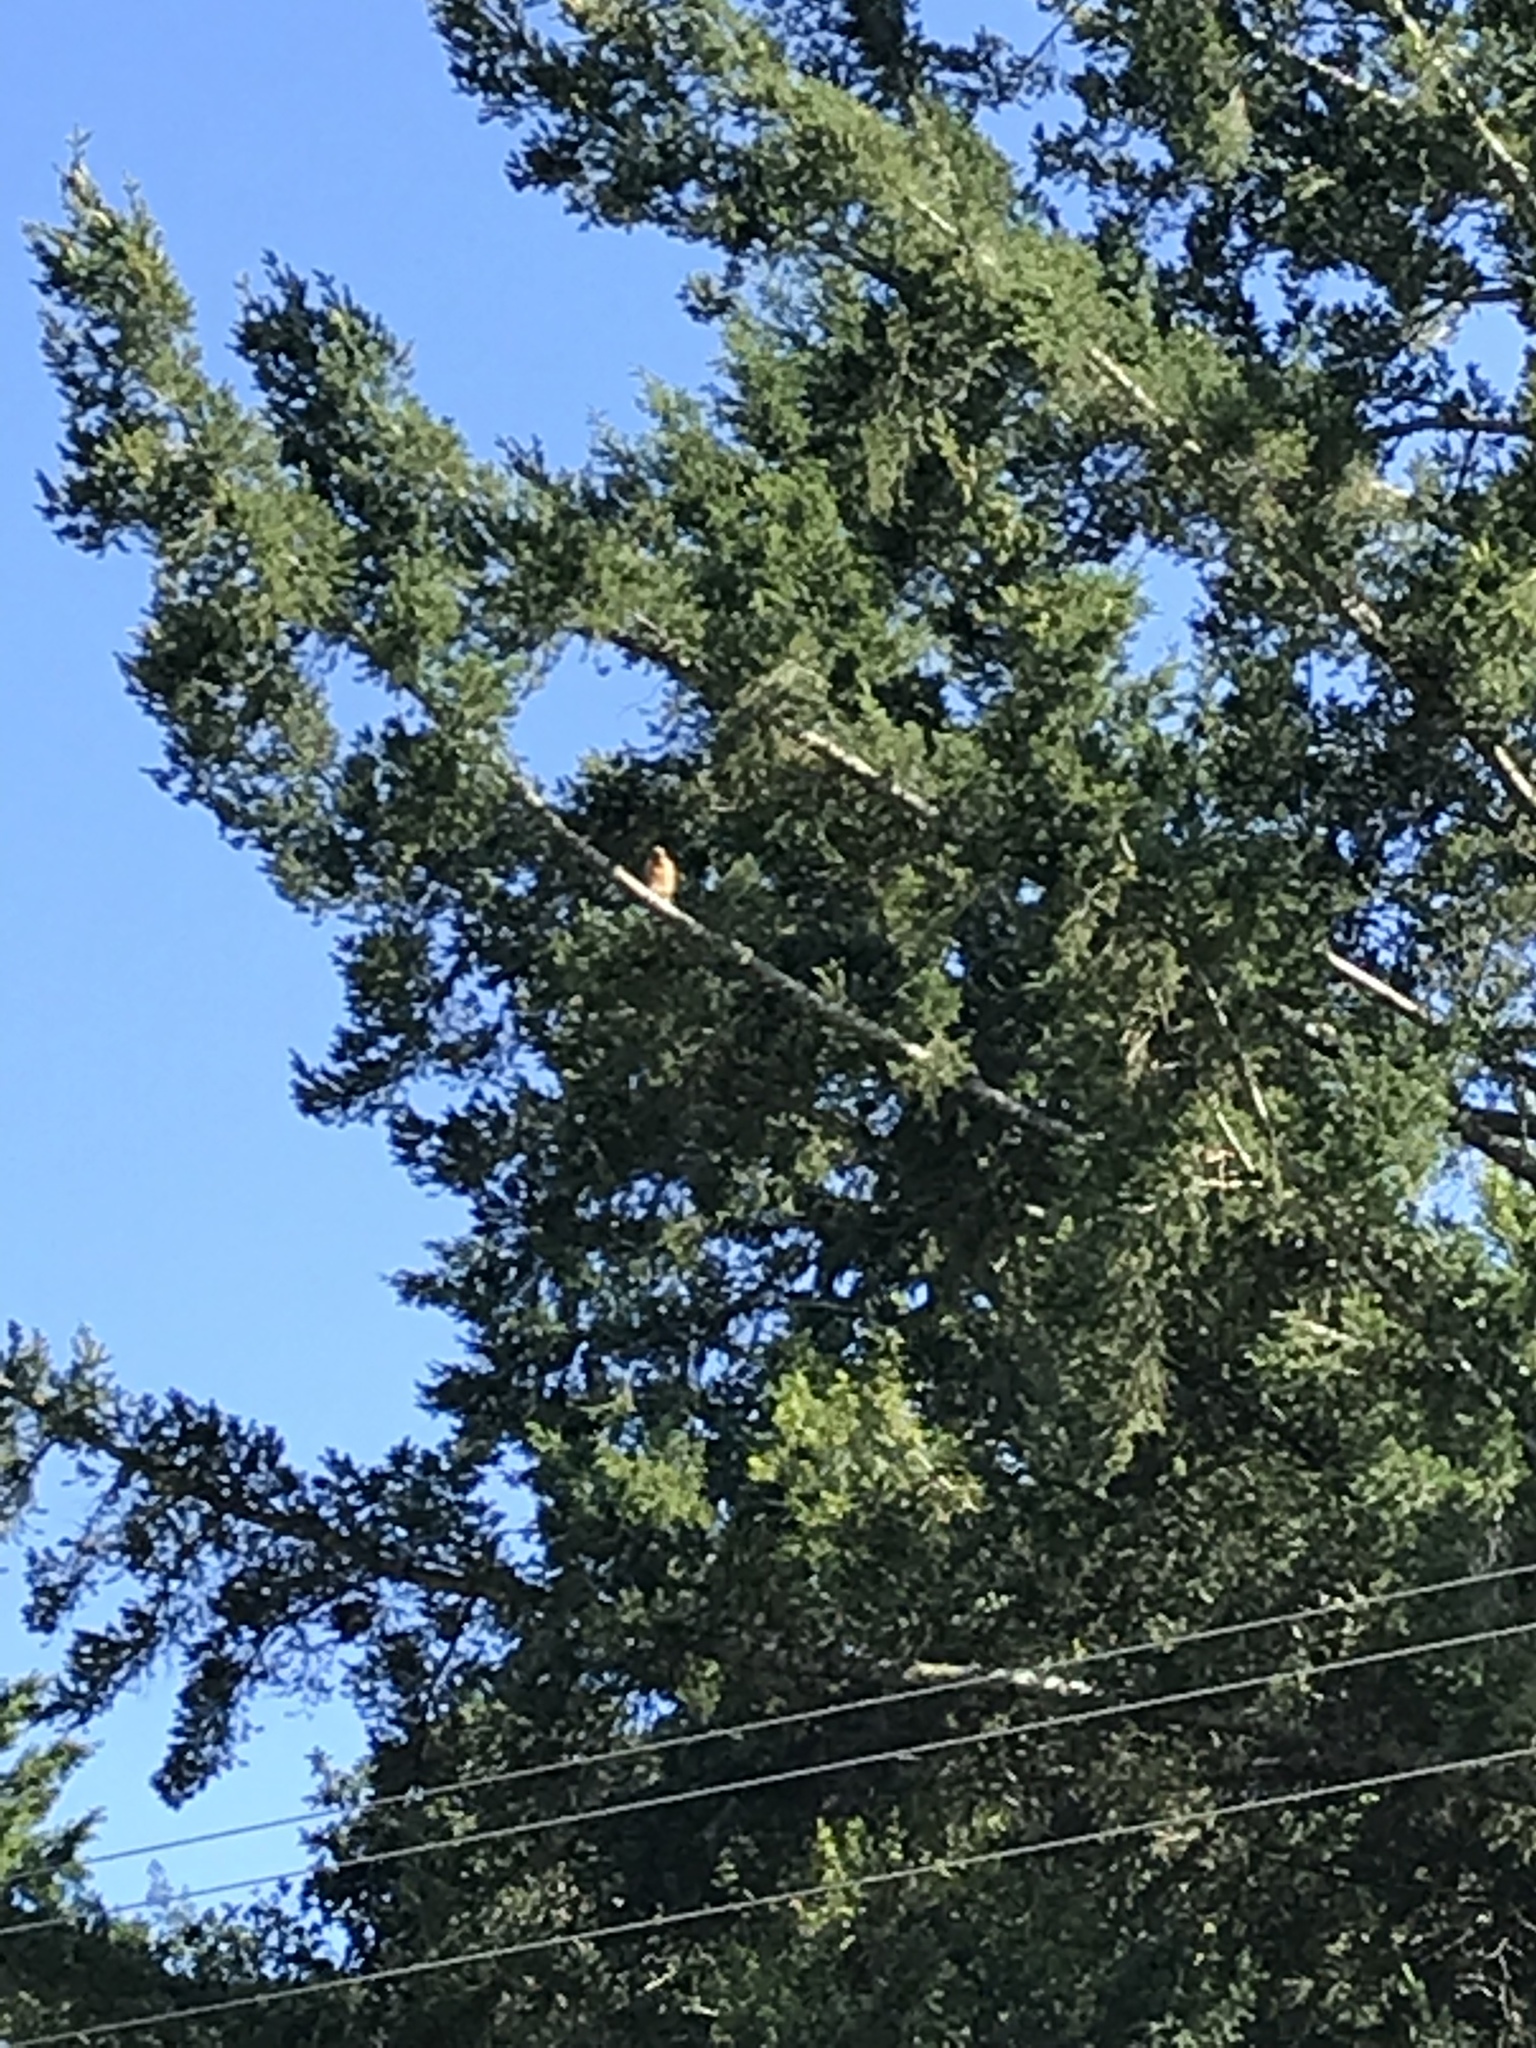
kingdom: Animalia
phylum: Chordata
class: Aves
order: Accipitriformes
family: Accipitridae
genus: Buteo
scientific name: Buteo lineatus
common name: Red-shouldered hawk
